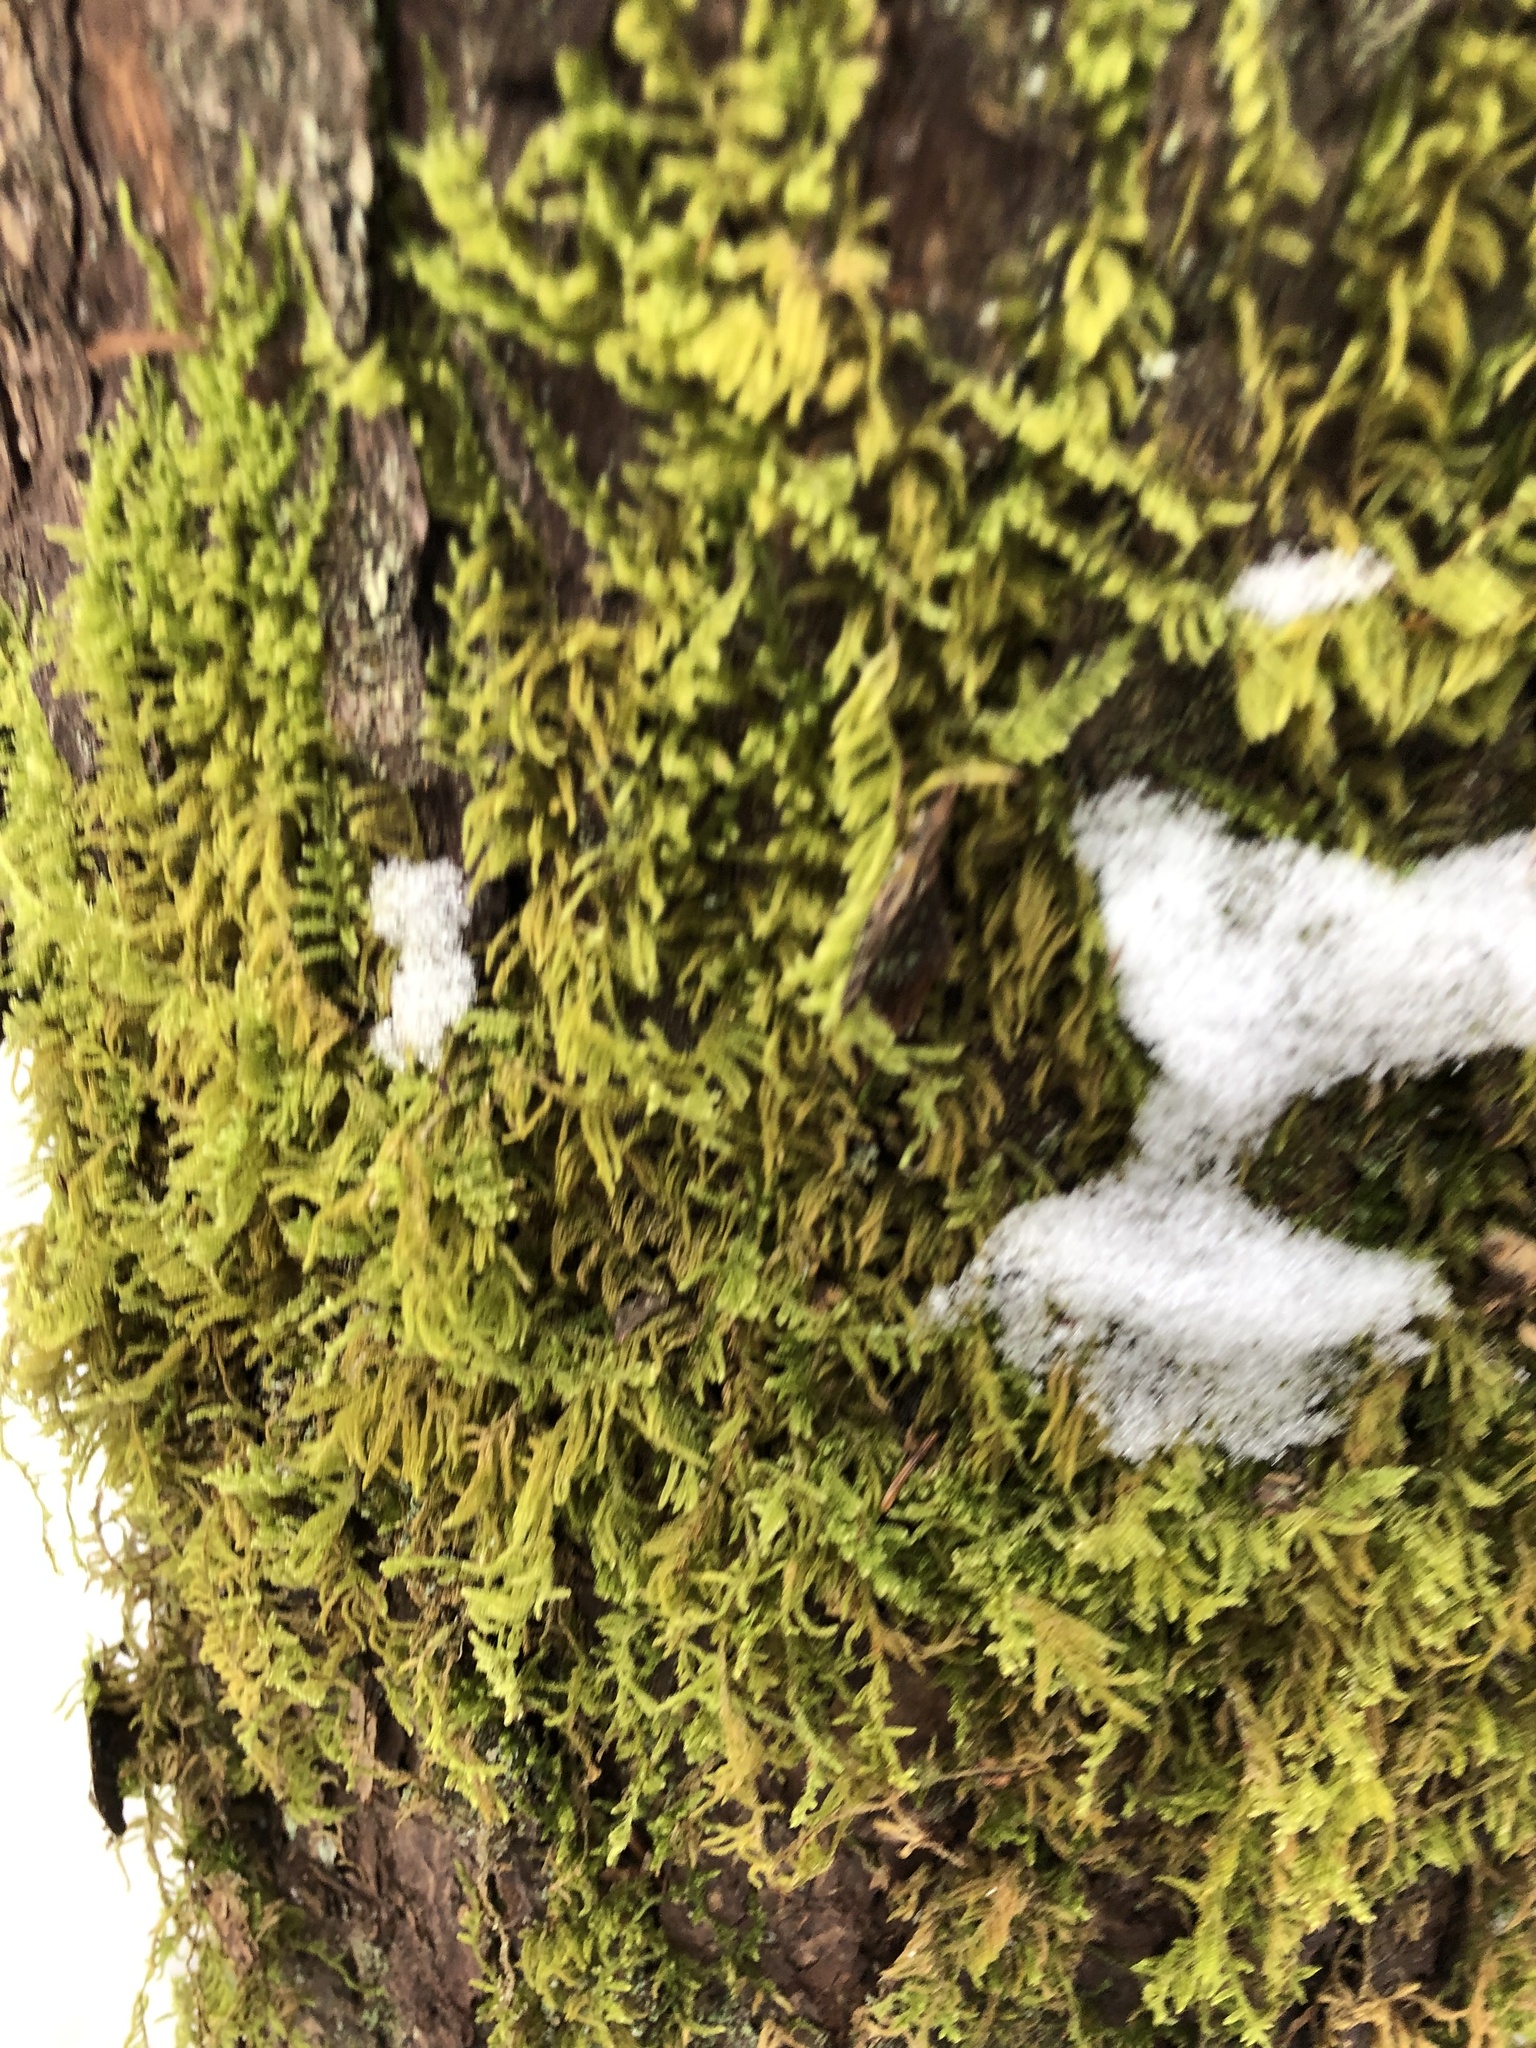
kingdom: Plantae
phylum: Bryophyta
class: Bryopsida
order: Hypnales
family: Callicladiaceae
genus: Callicladium
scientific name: Callicladium imponens
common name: Brocade moss
